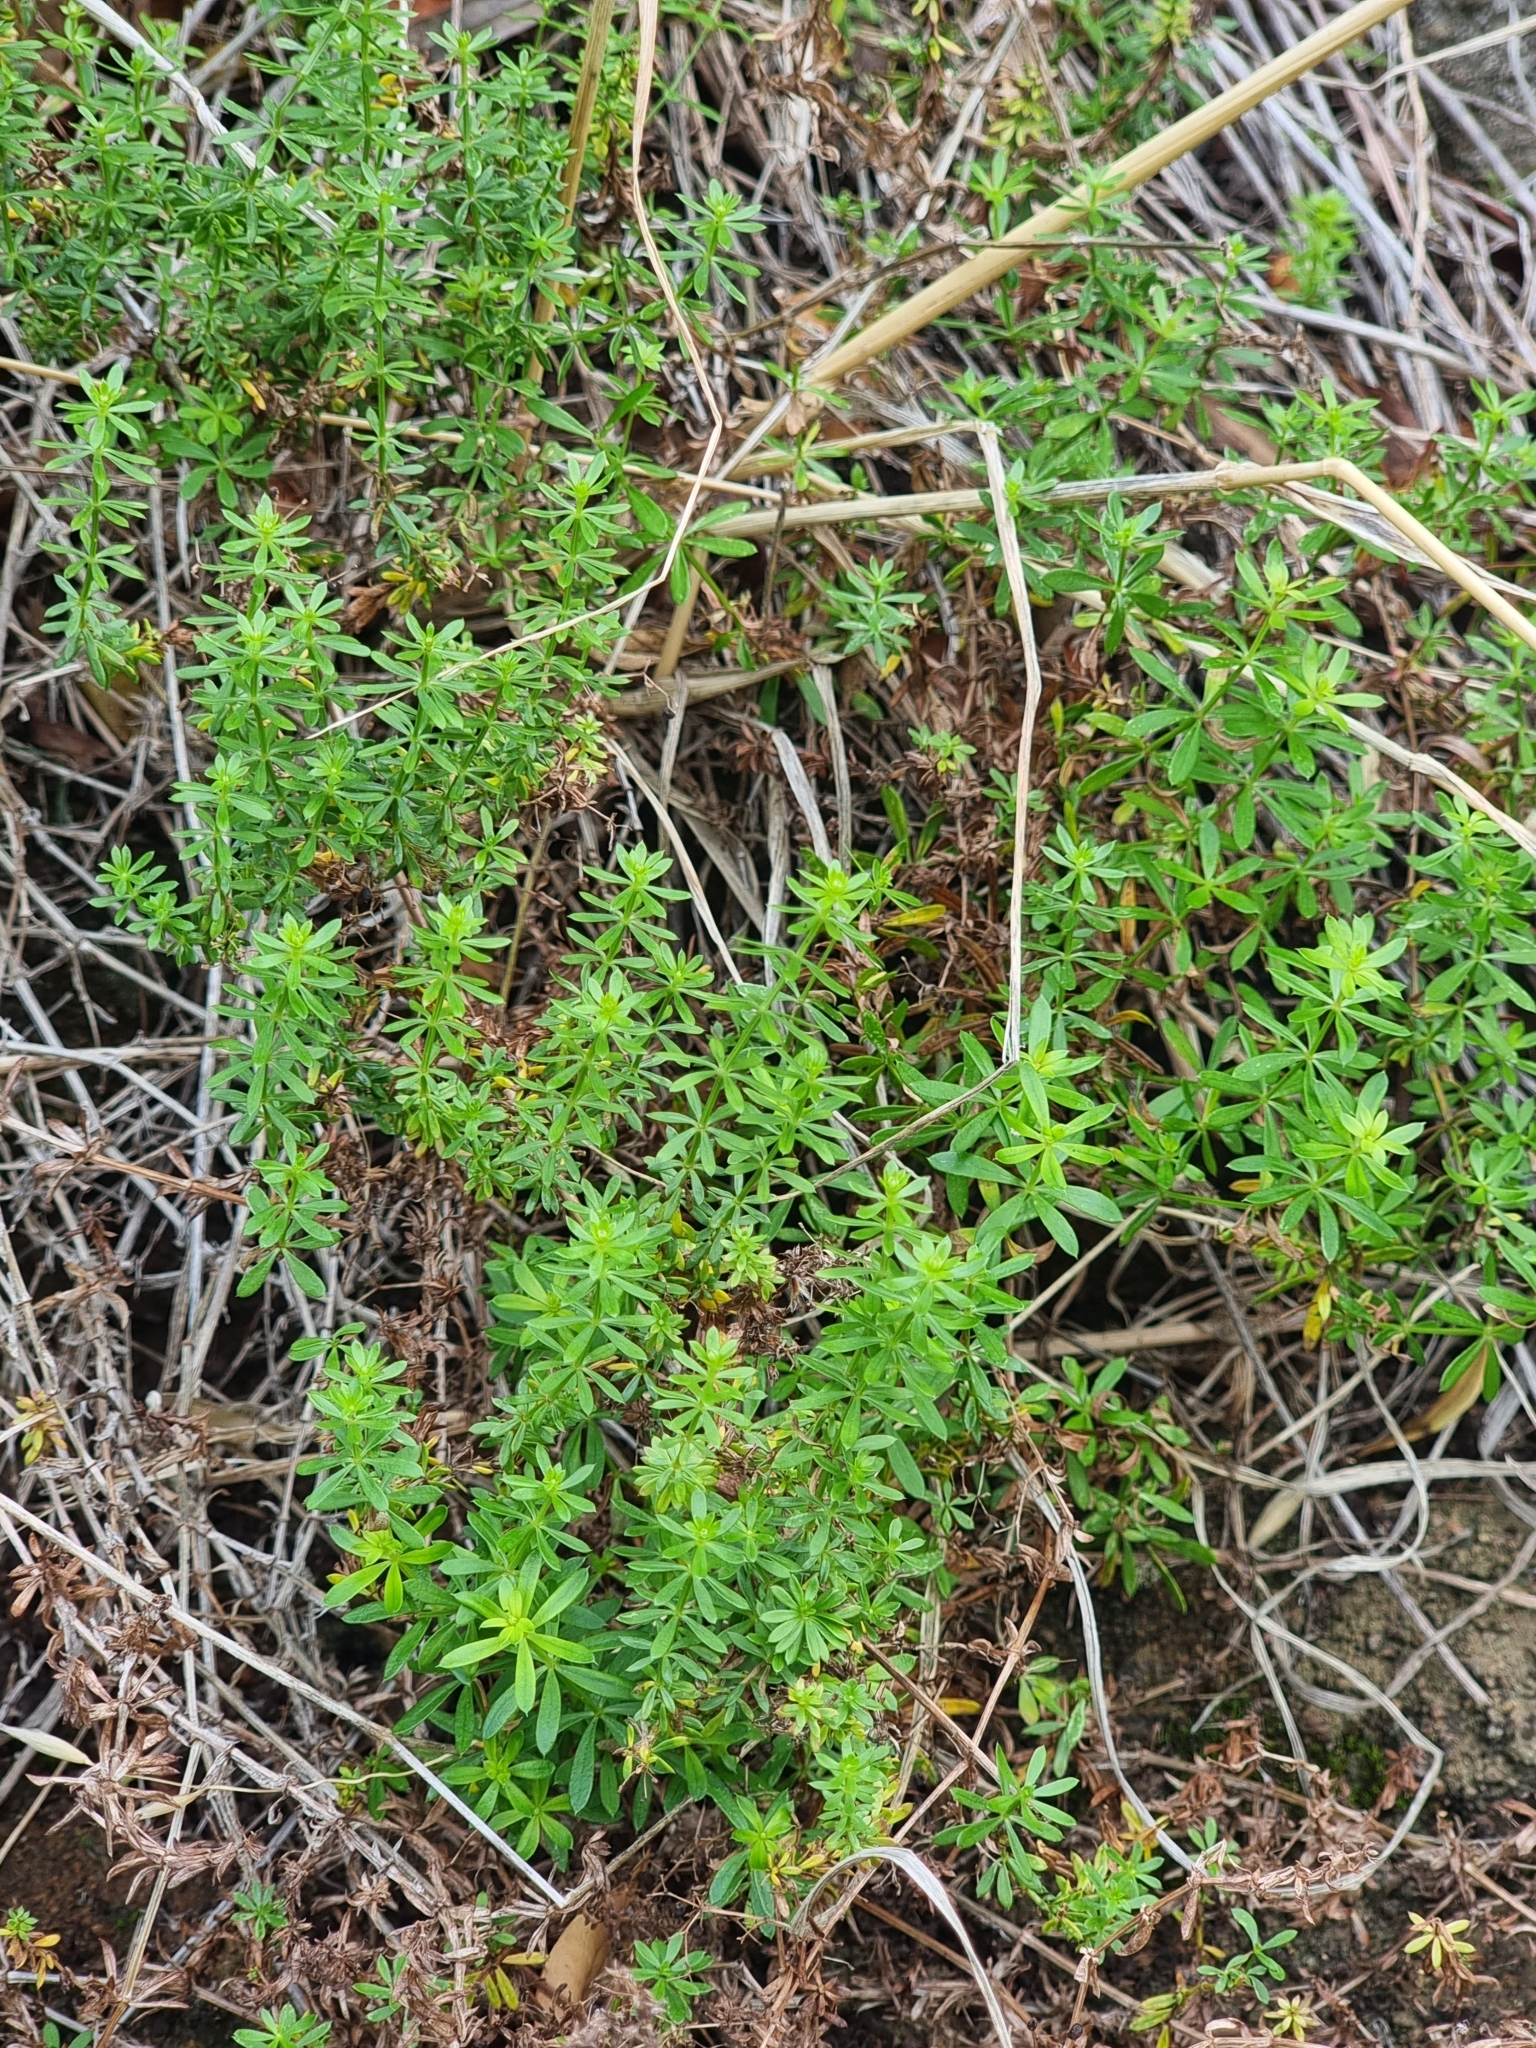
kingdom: Plantae
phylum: Tracheophyta
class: Magnoliopsida
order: Gentianales
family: Rubiaceae
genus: Galium
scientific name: Galium productum
